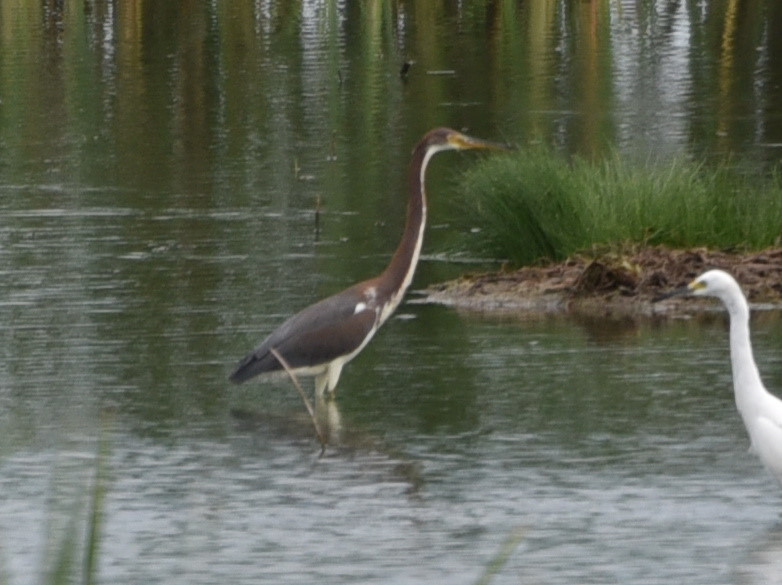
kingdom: Animalia
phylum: Chordata
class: Aves
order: Pelecaniformes
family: Ardeidae
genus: Egretta
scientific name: Egretta tricolor
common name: Tricolored heron
